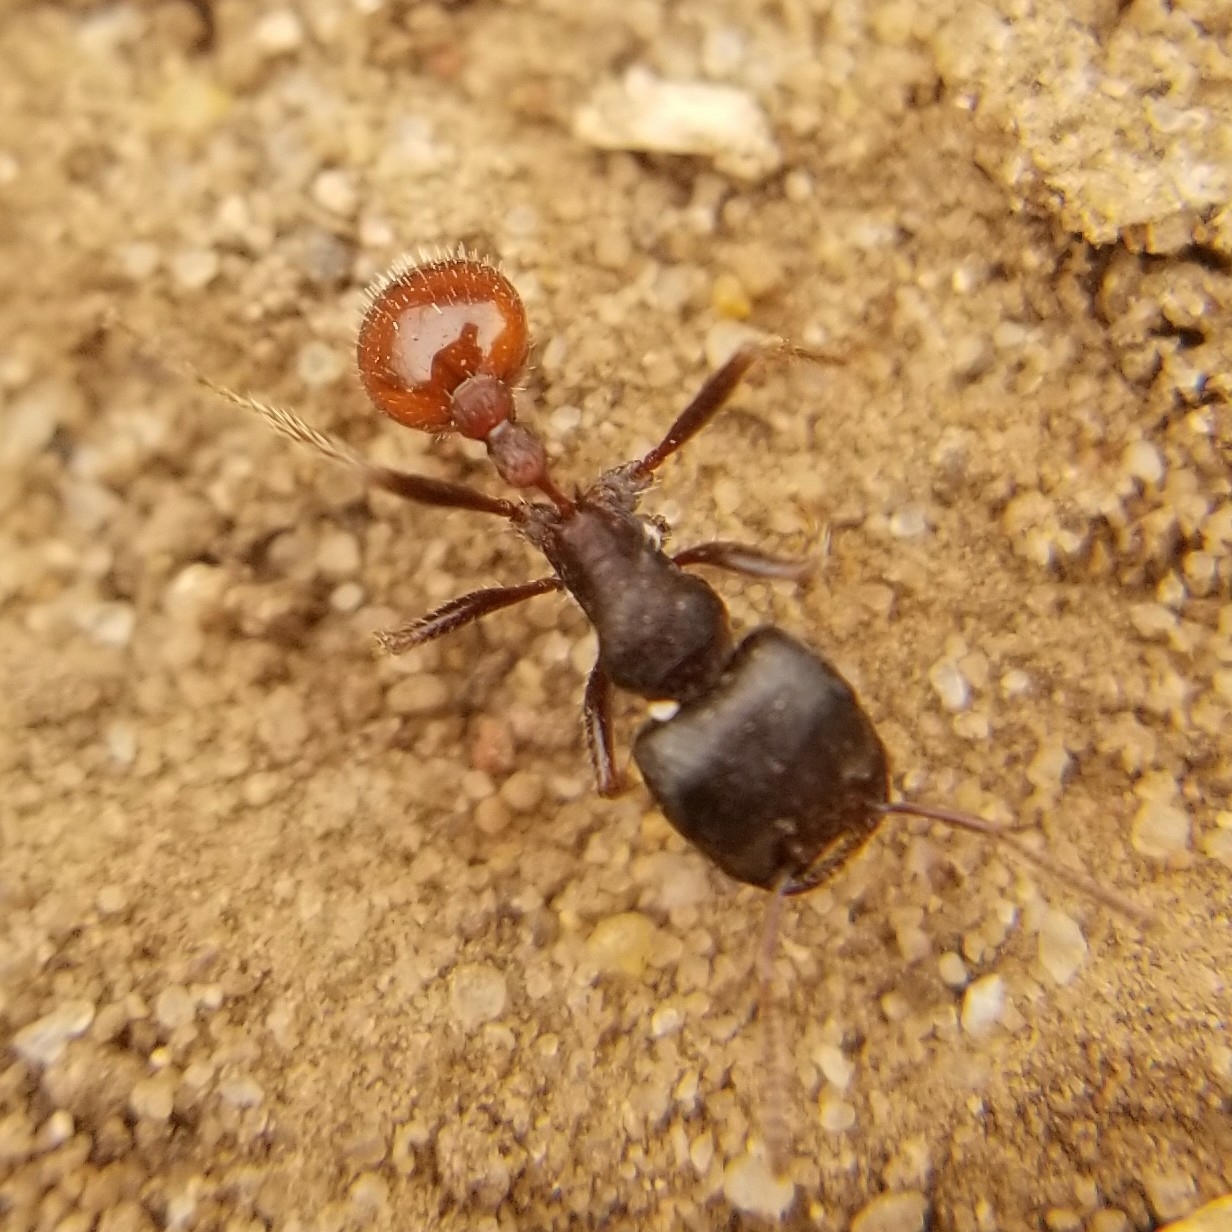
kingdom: Animalia
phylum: Arthropoda
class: Insecta
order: Hymenoptera
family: Formicidae
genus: Pogonomyrmex
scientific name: Pogonomyrmex rugosus
